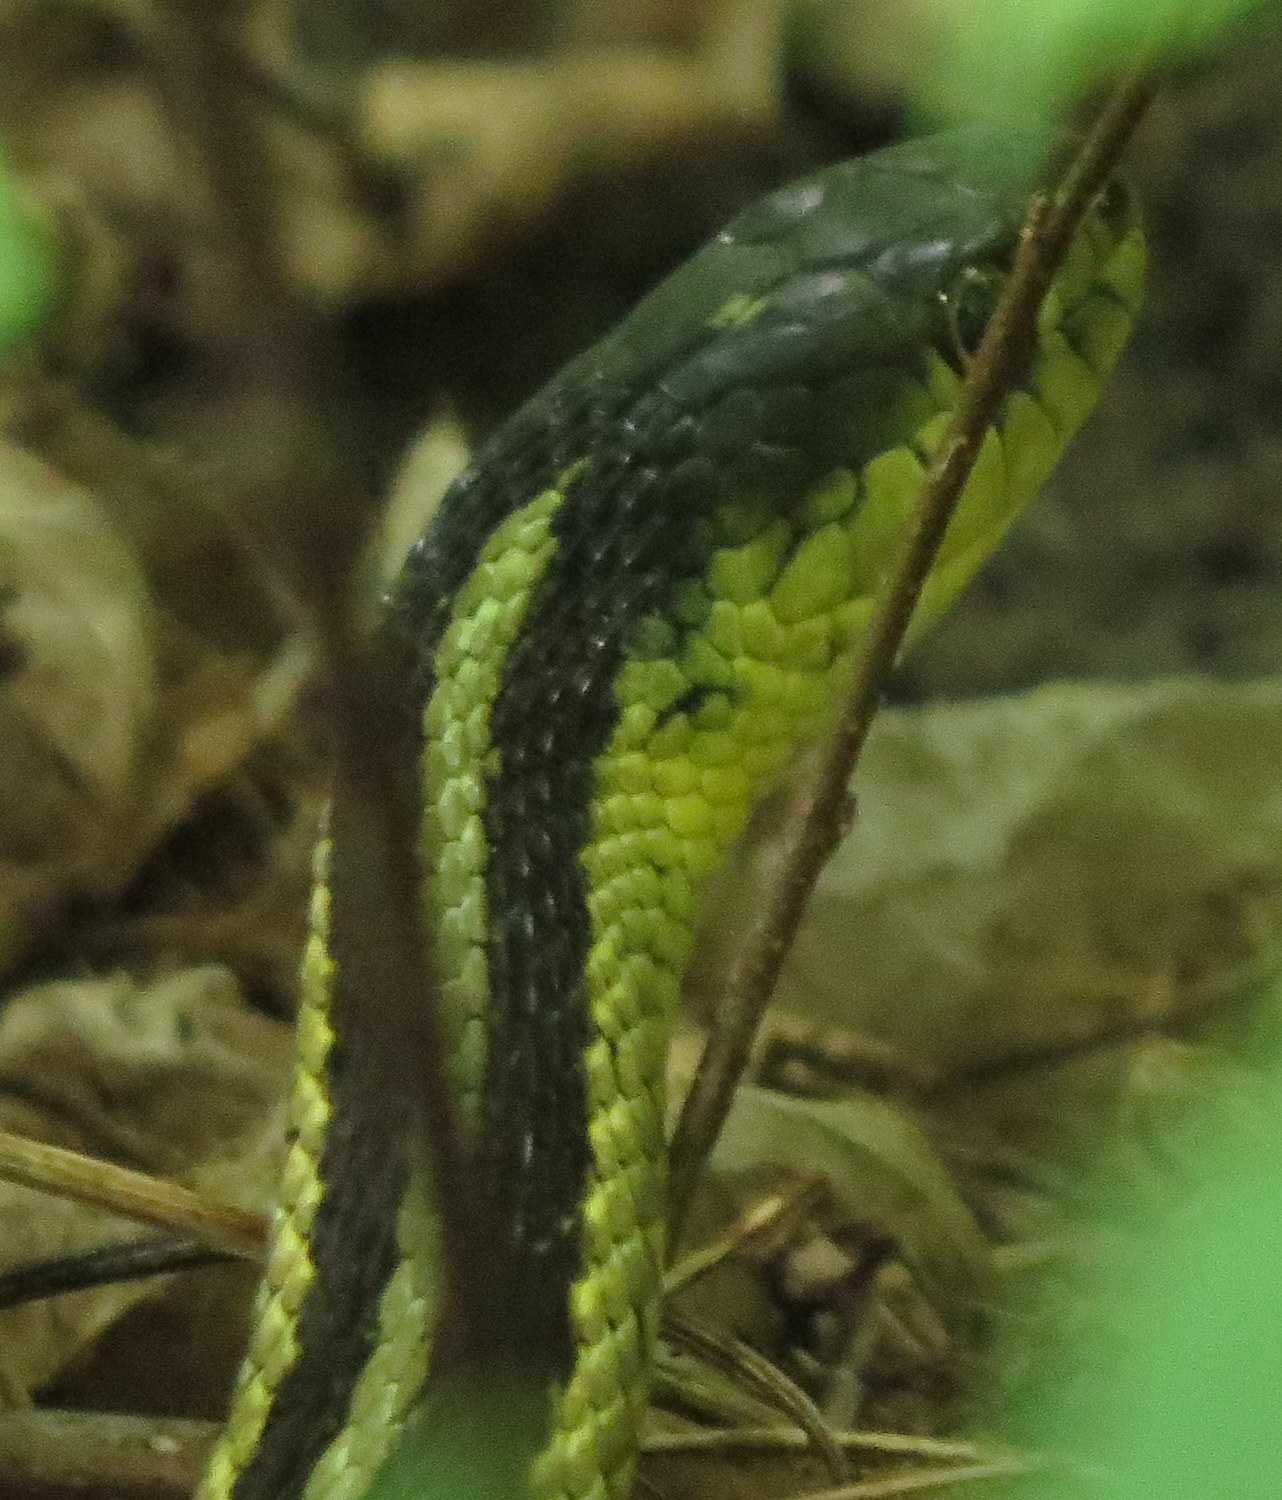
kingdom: Animalia
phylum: Chordata
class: Squamata
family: Colubridae
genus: Thamnophis
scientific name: Thamnophis sirtalis
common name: Common garter snake
